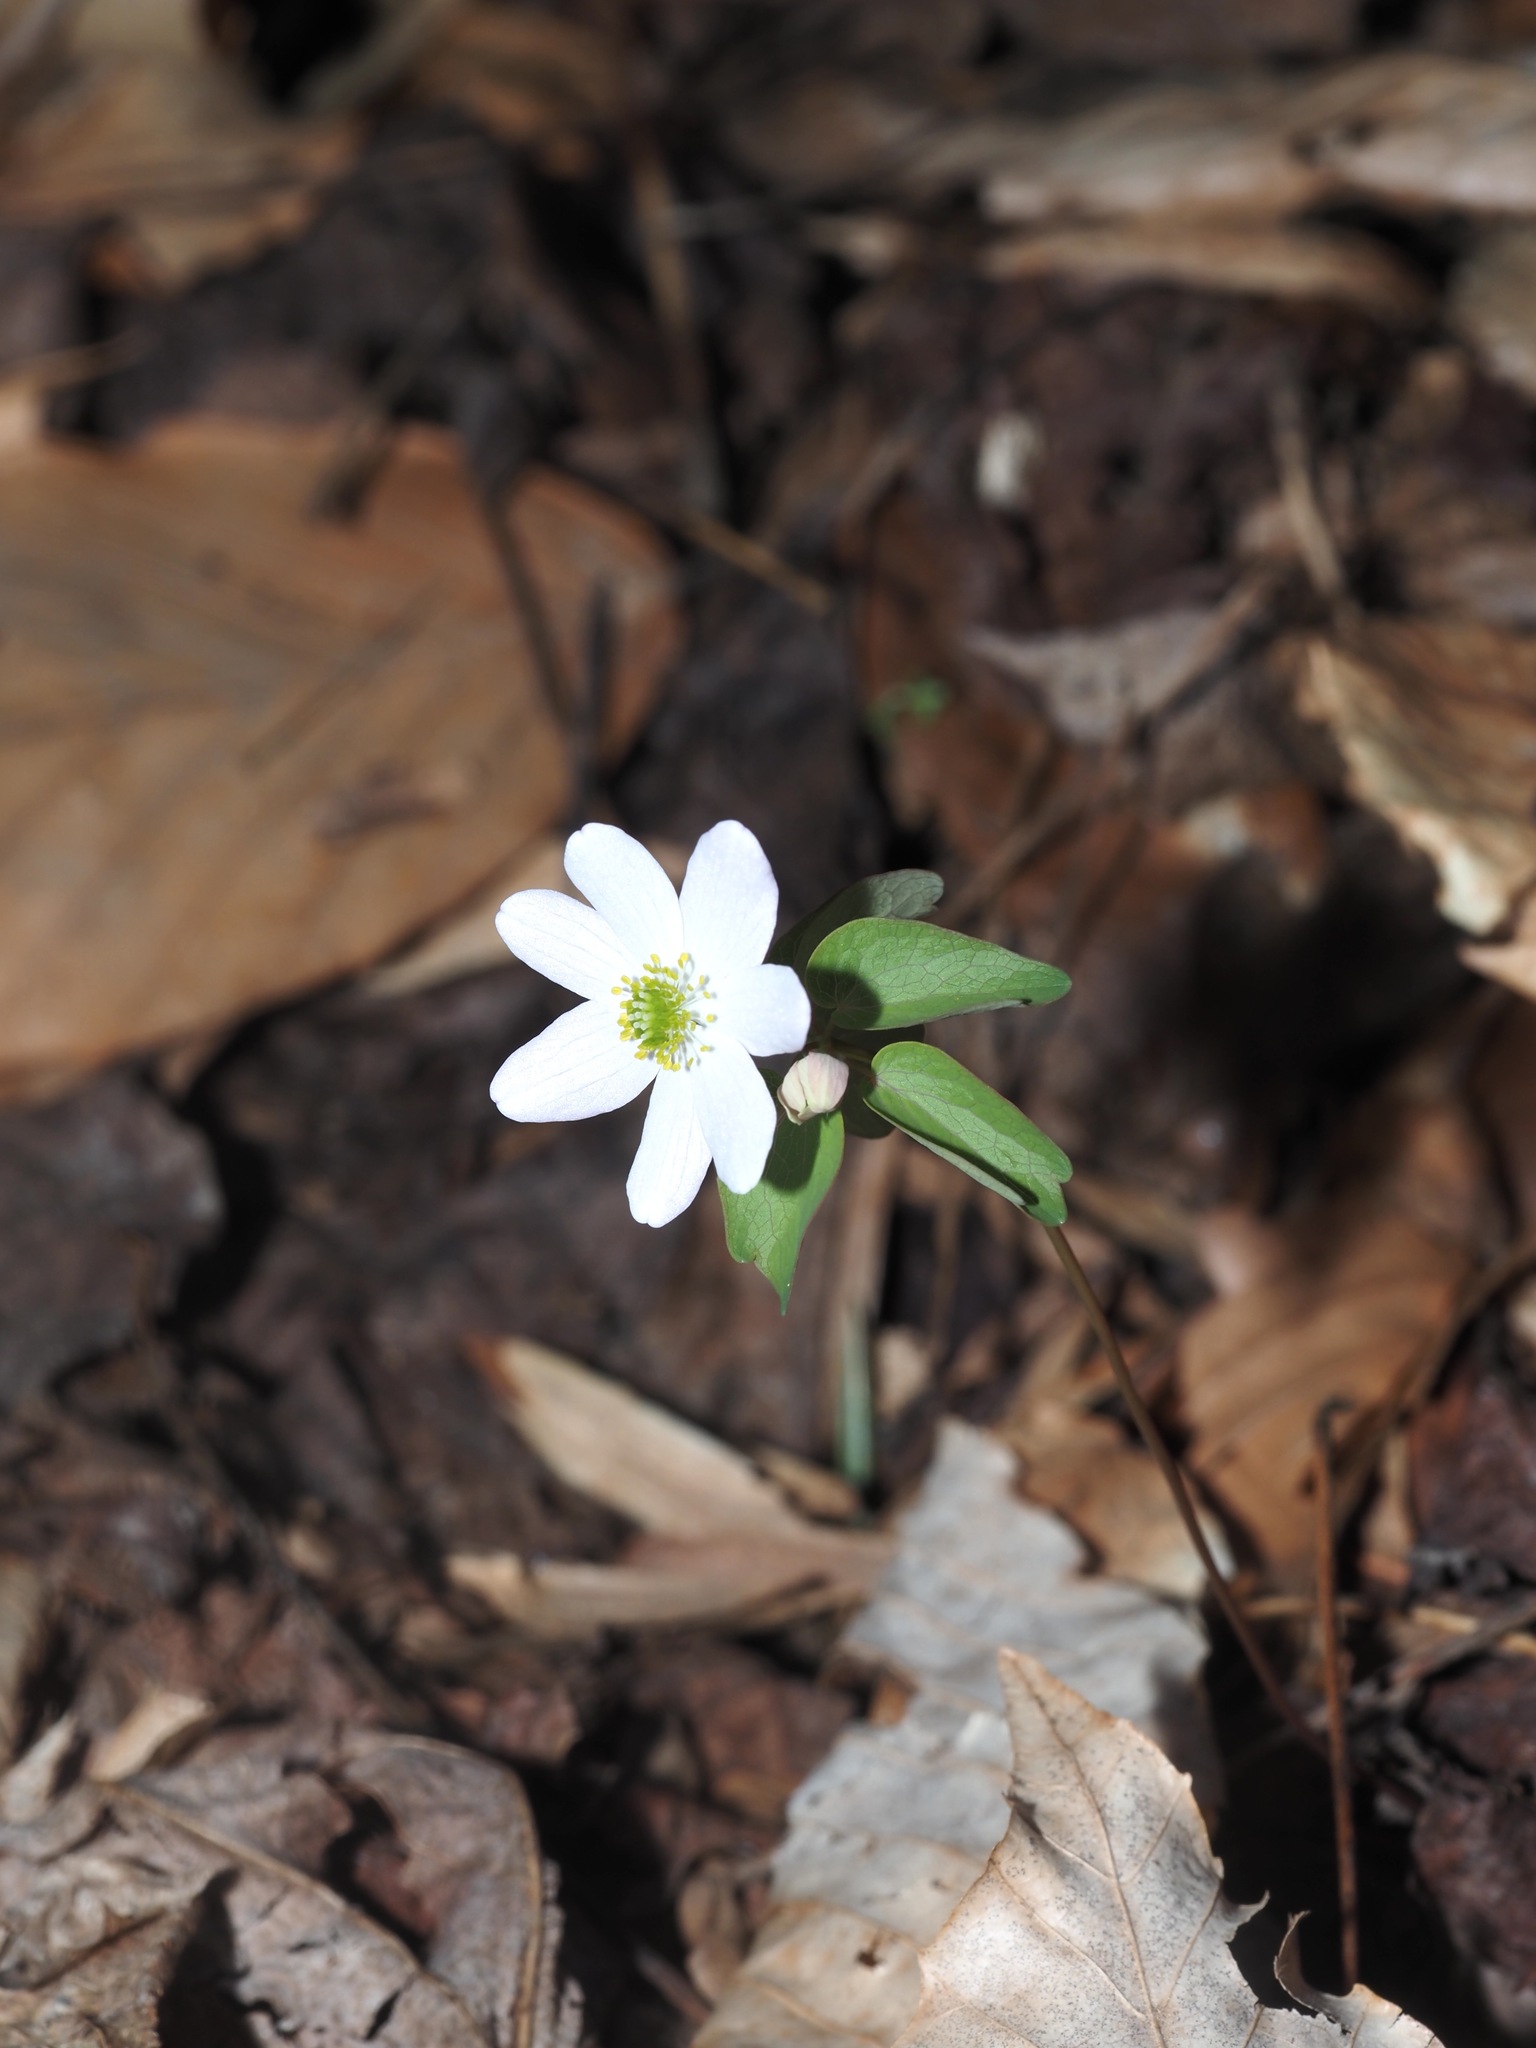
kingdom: Plantae
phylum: Tracheophyta
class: Magnoliopsida
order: Ranunculales
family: Ranunculaceae
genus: Thalictrum
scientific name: Thalictrum thalictroides
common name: Rue-anemone
